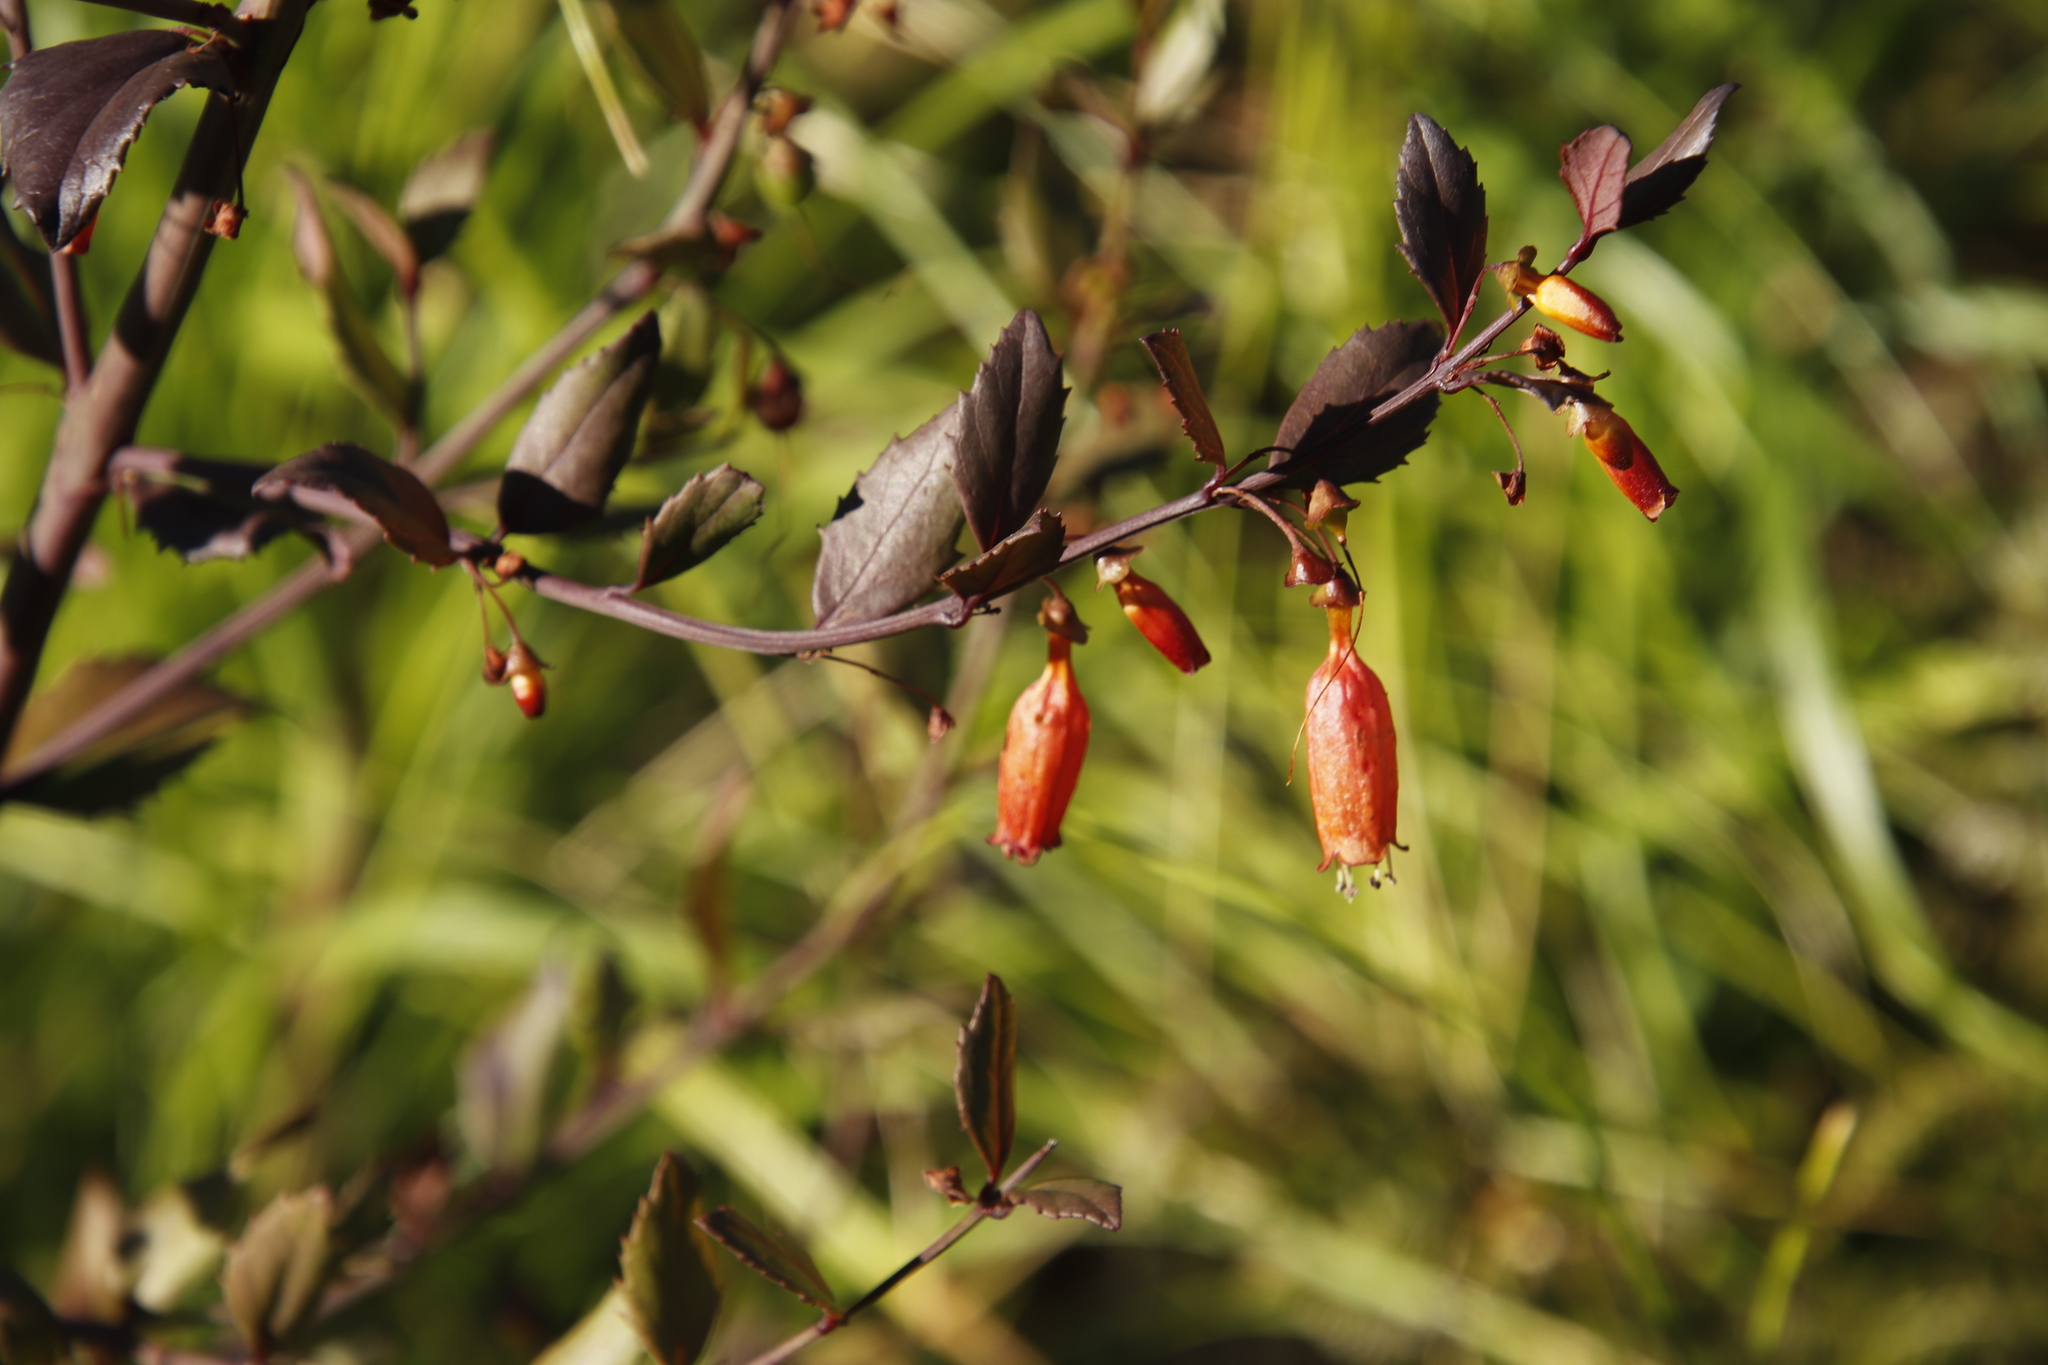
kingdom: Plantae
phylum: Tracheophyta
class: Magnoliopsida
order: Lamiales
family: Stilbaceae
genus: Halleria
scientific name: Halleria elliptica
